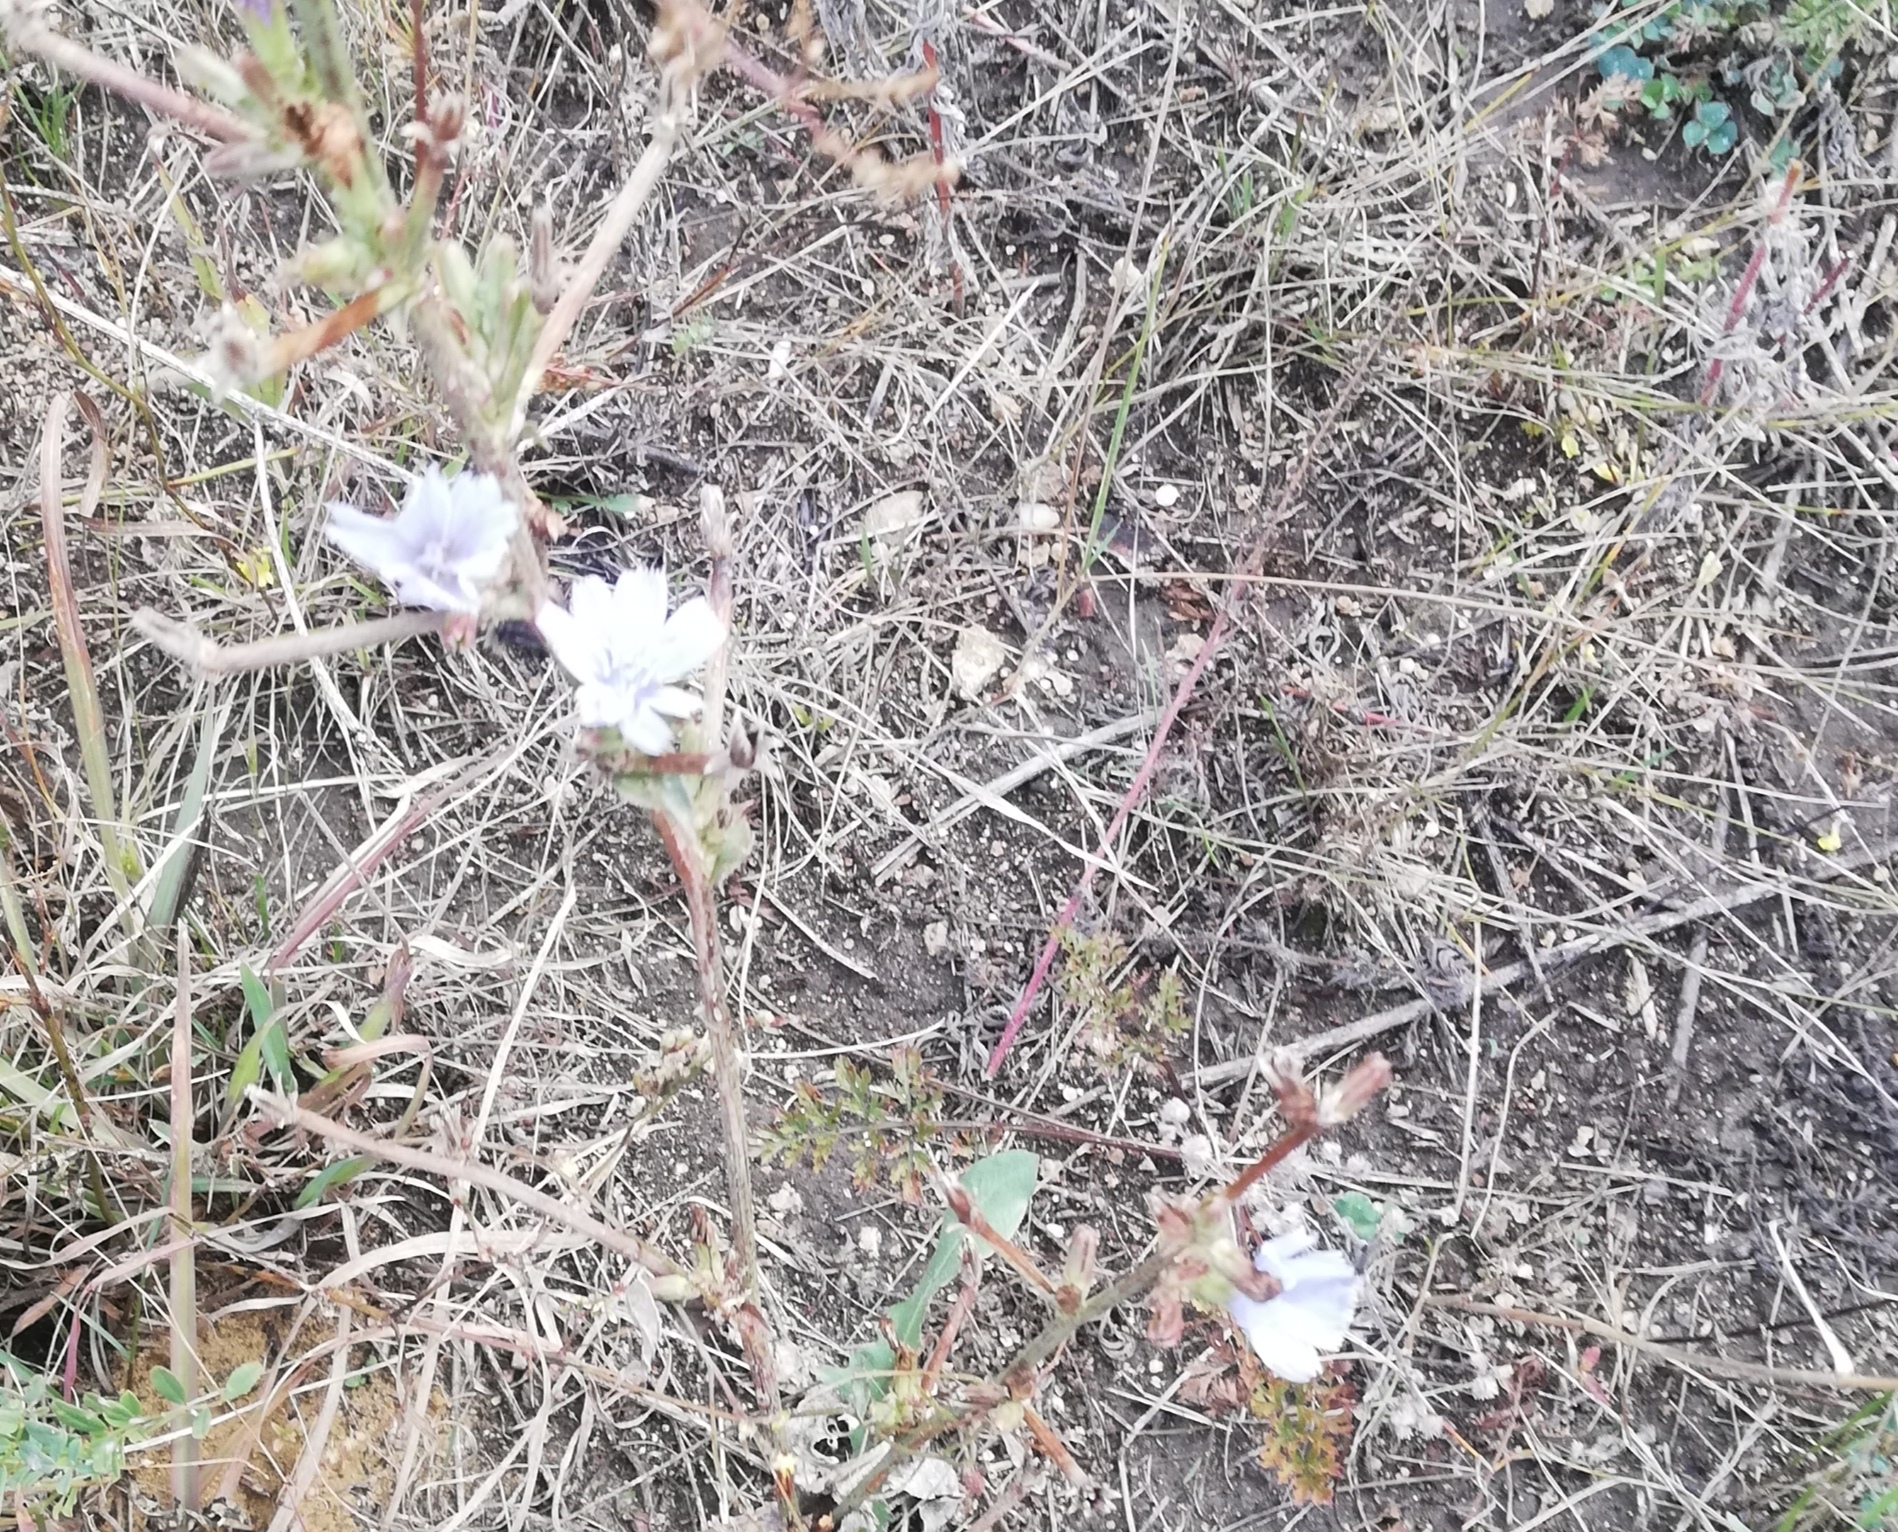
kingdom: Plantae
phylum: Tracheophyta
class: Magnoliopsida
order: Asterales
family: Asteraceae
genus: Cichorium
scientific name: Cichorium intybus
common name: Chicory
